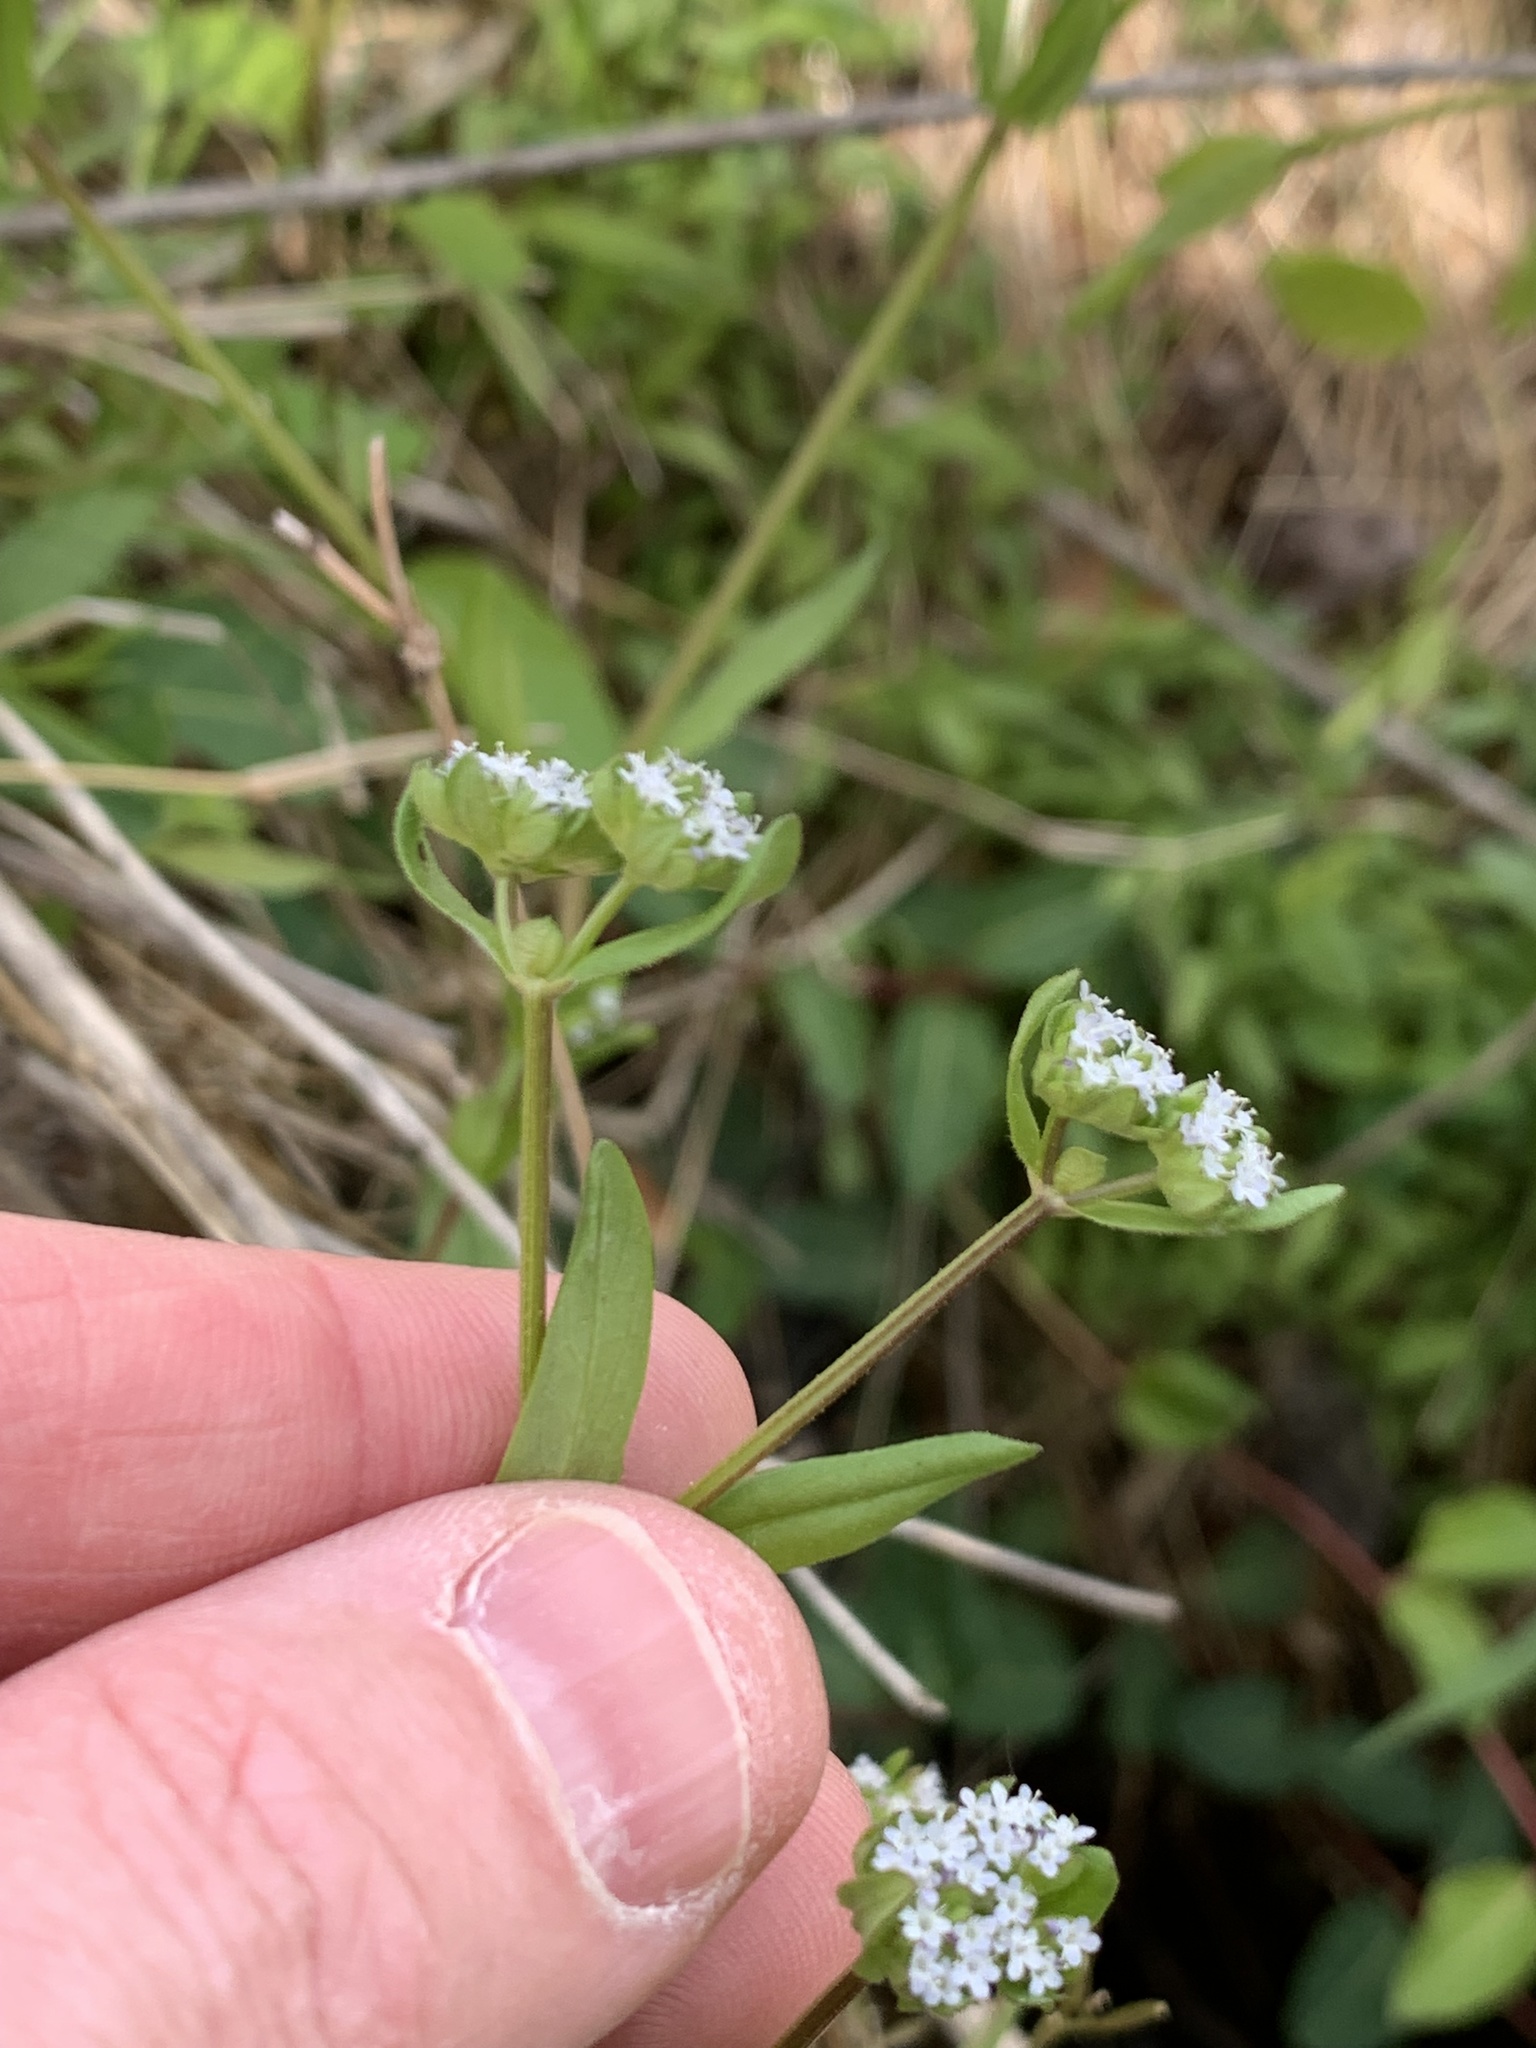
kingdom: Plantae
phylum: Tracheophyta
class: Magnoliopsida
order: Dipsacales
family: Caprifoliaceae
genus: Valerianella
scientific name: Valerianella locusta
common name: Common cornsalad
